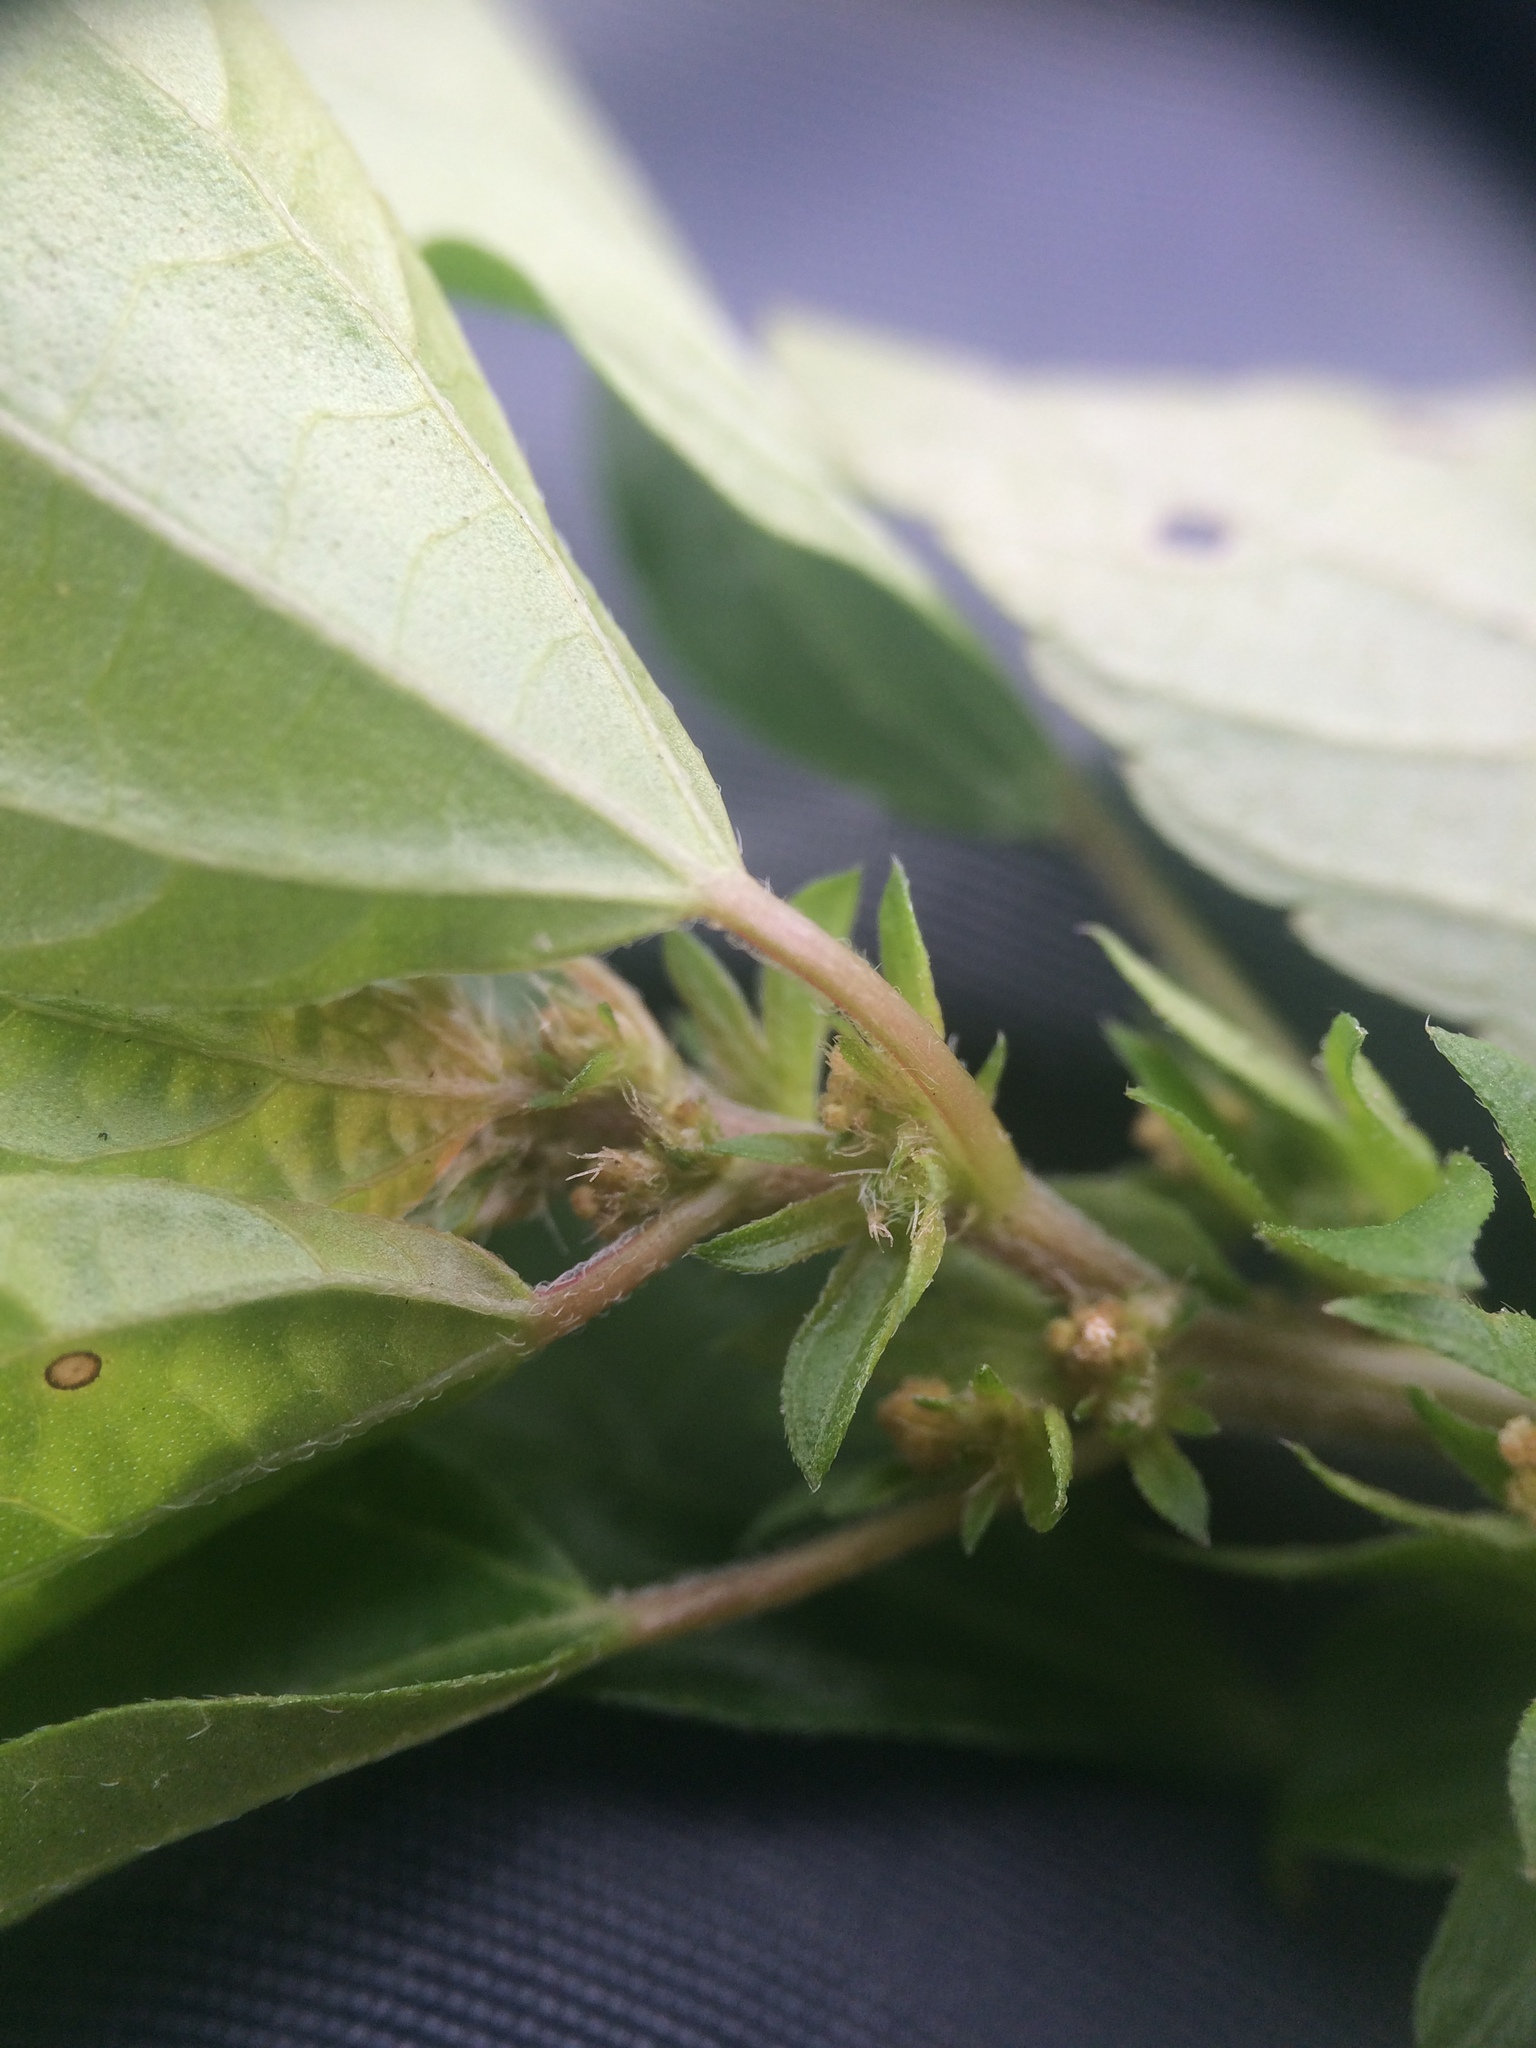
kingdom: Plantae
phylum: Tracheophyta
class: Magnoliopsida
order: Malpighiales
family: Euphorbiaceae
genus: Acalypha
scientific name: Acalypha rhomboidea
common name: Rhombic copperleaf
